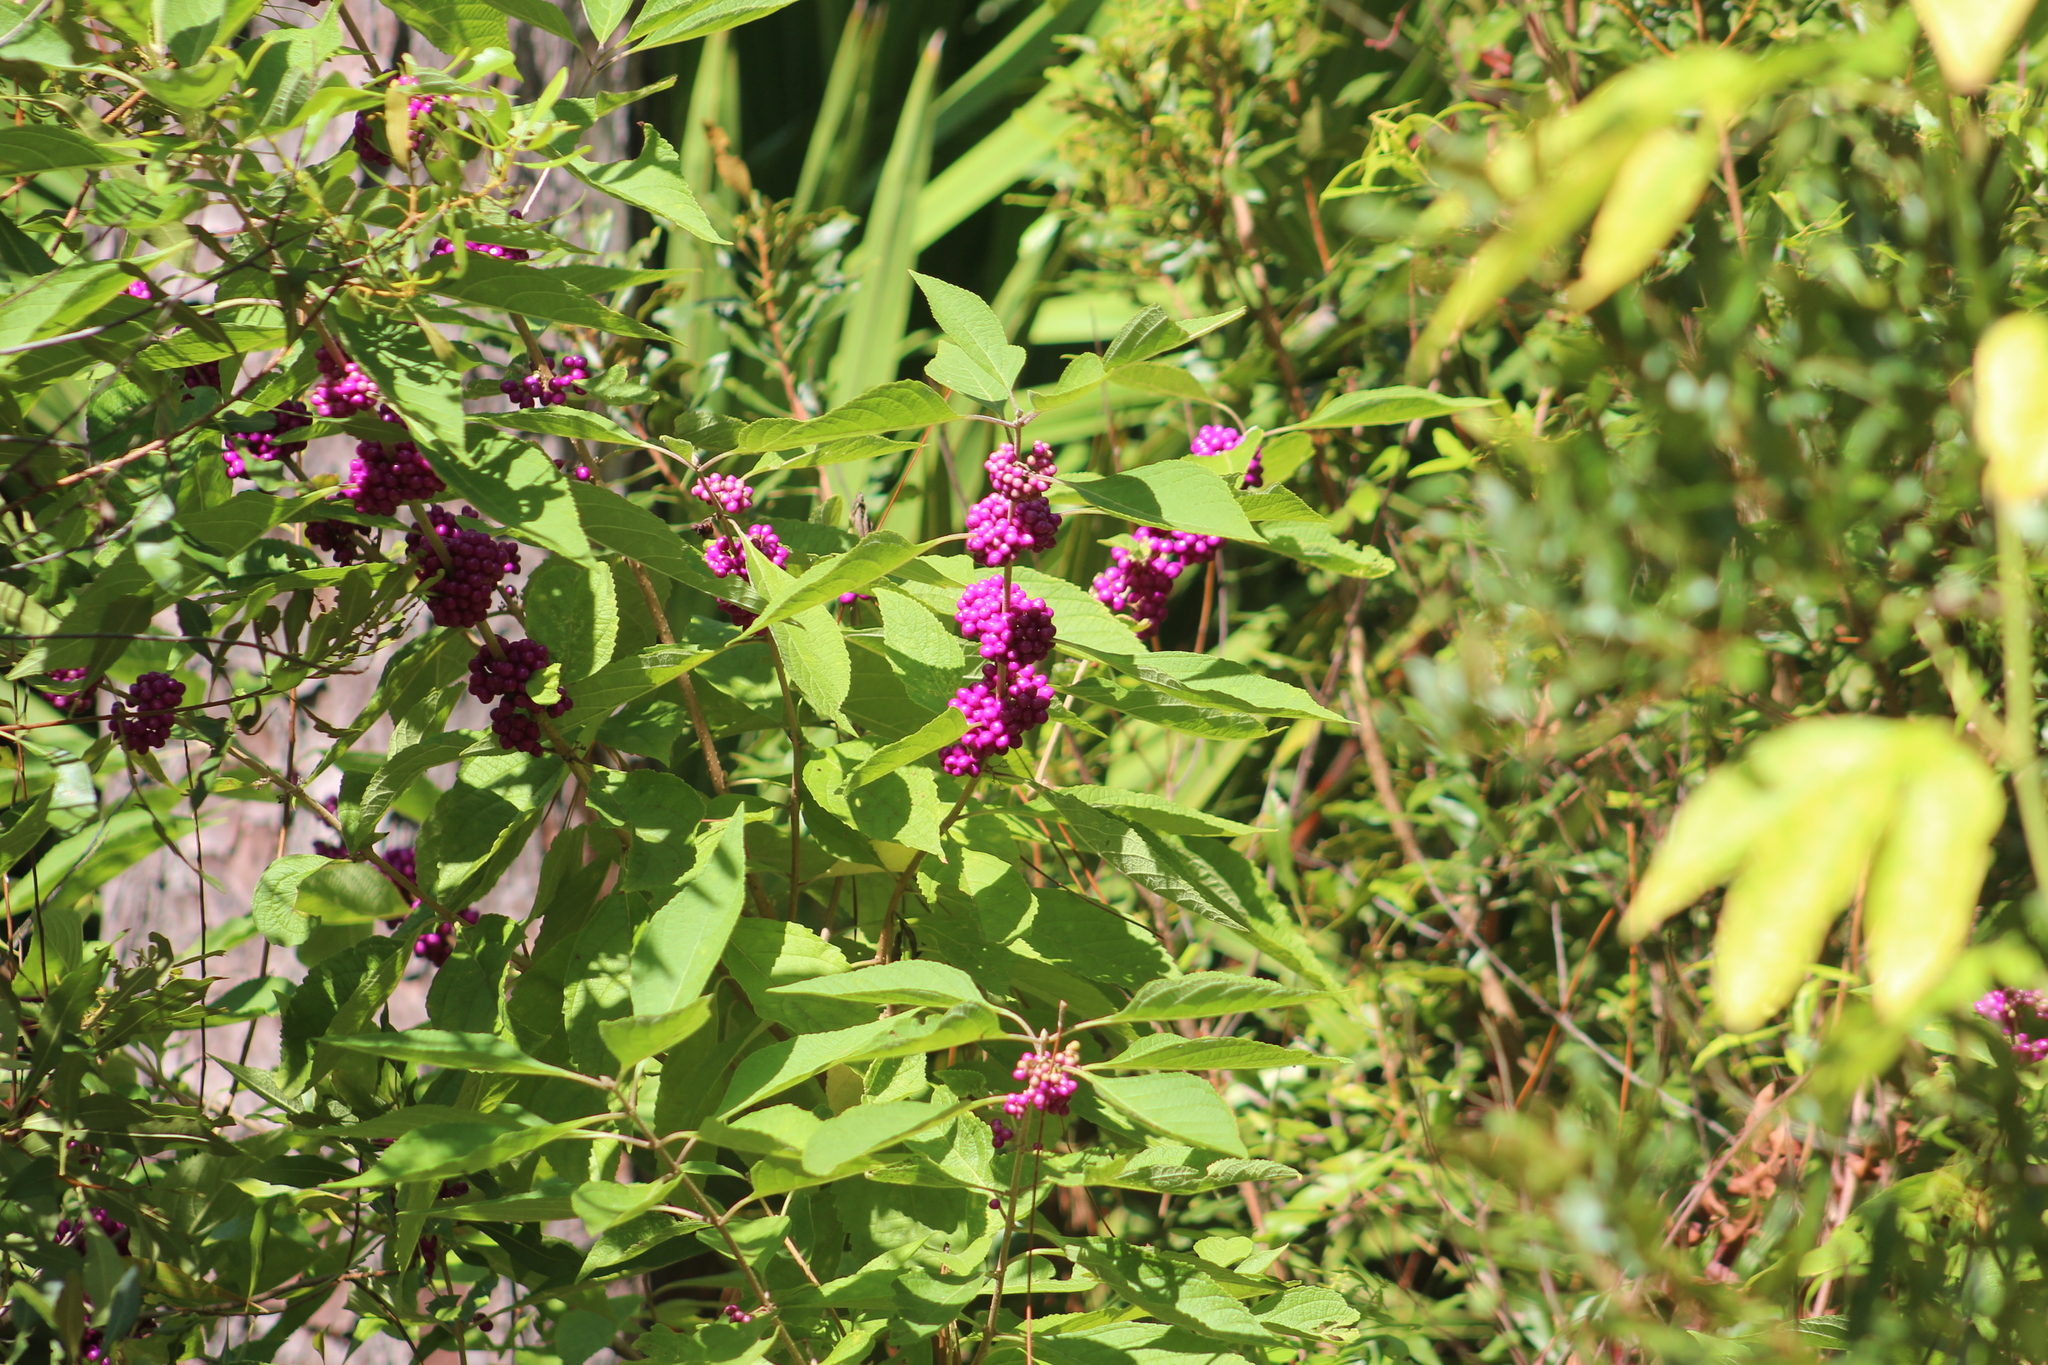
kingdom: Plantae
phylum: Tracheophyta
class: Magnoliopsida
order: Lamiales
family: Lamiaceae
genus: Callicarpa
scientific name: Callicarpa americana
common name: American beautyberry
